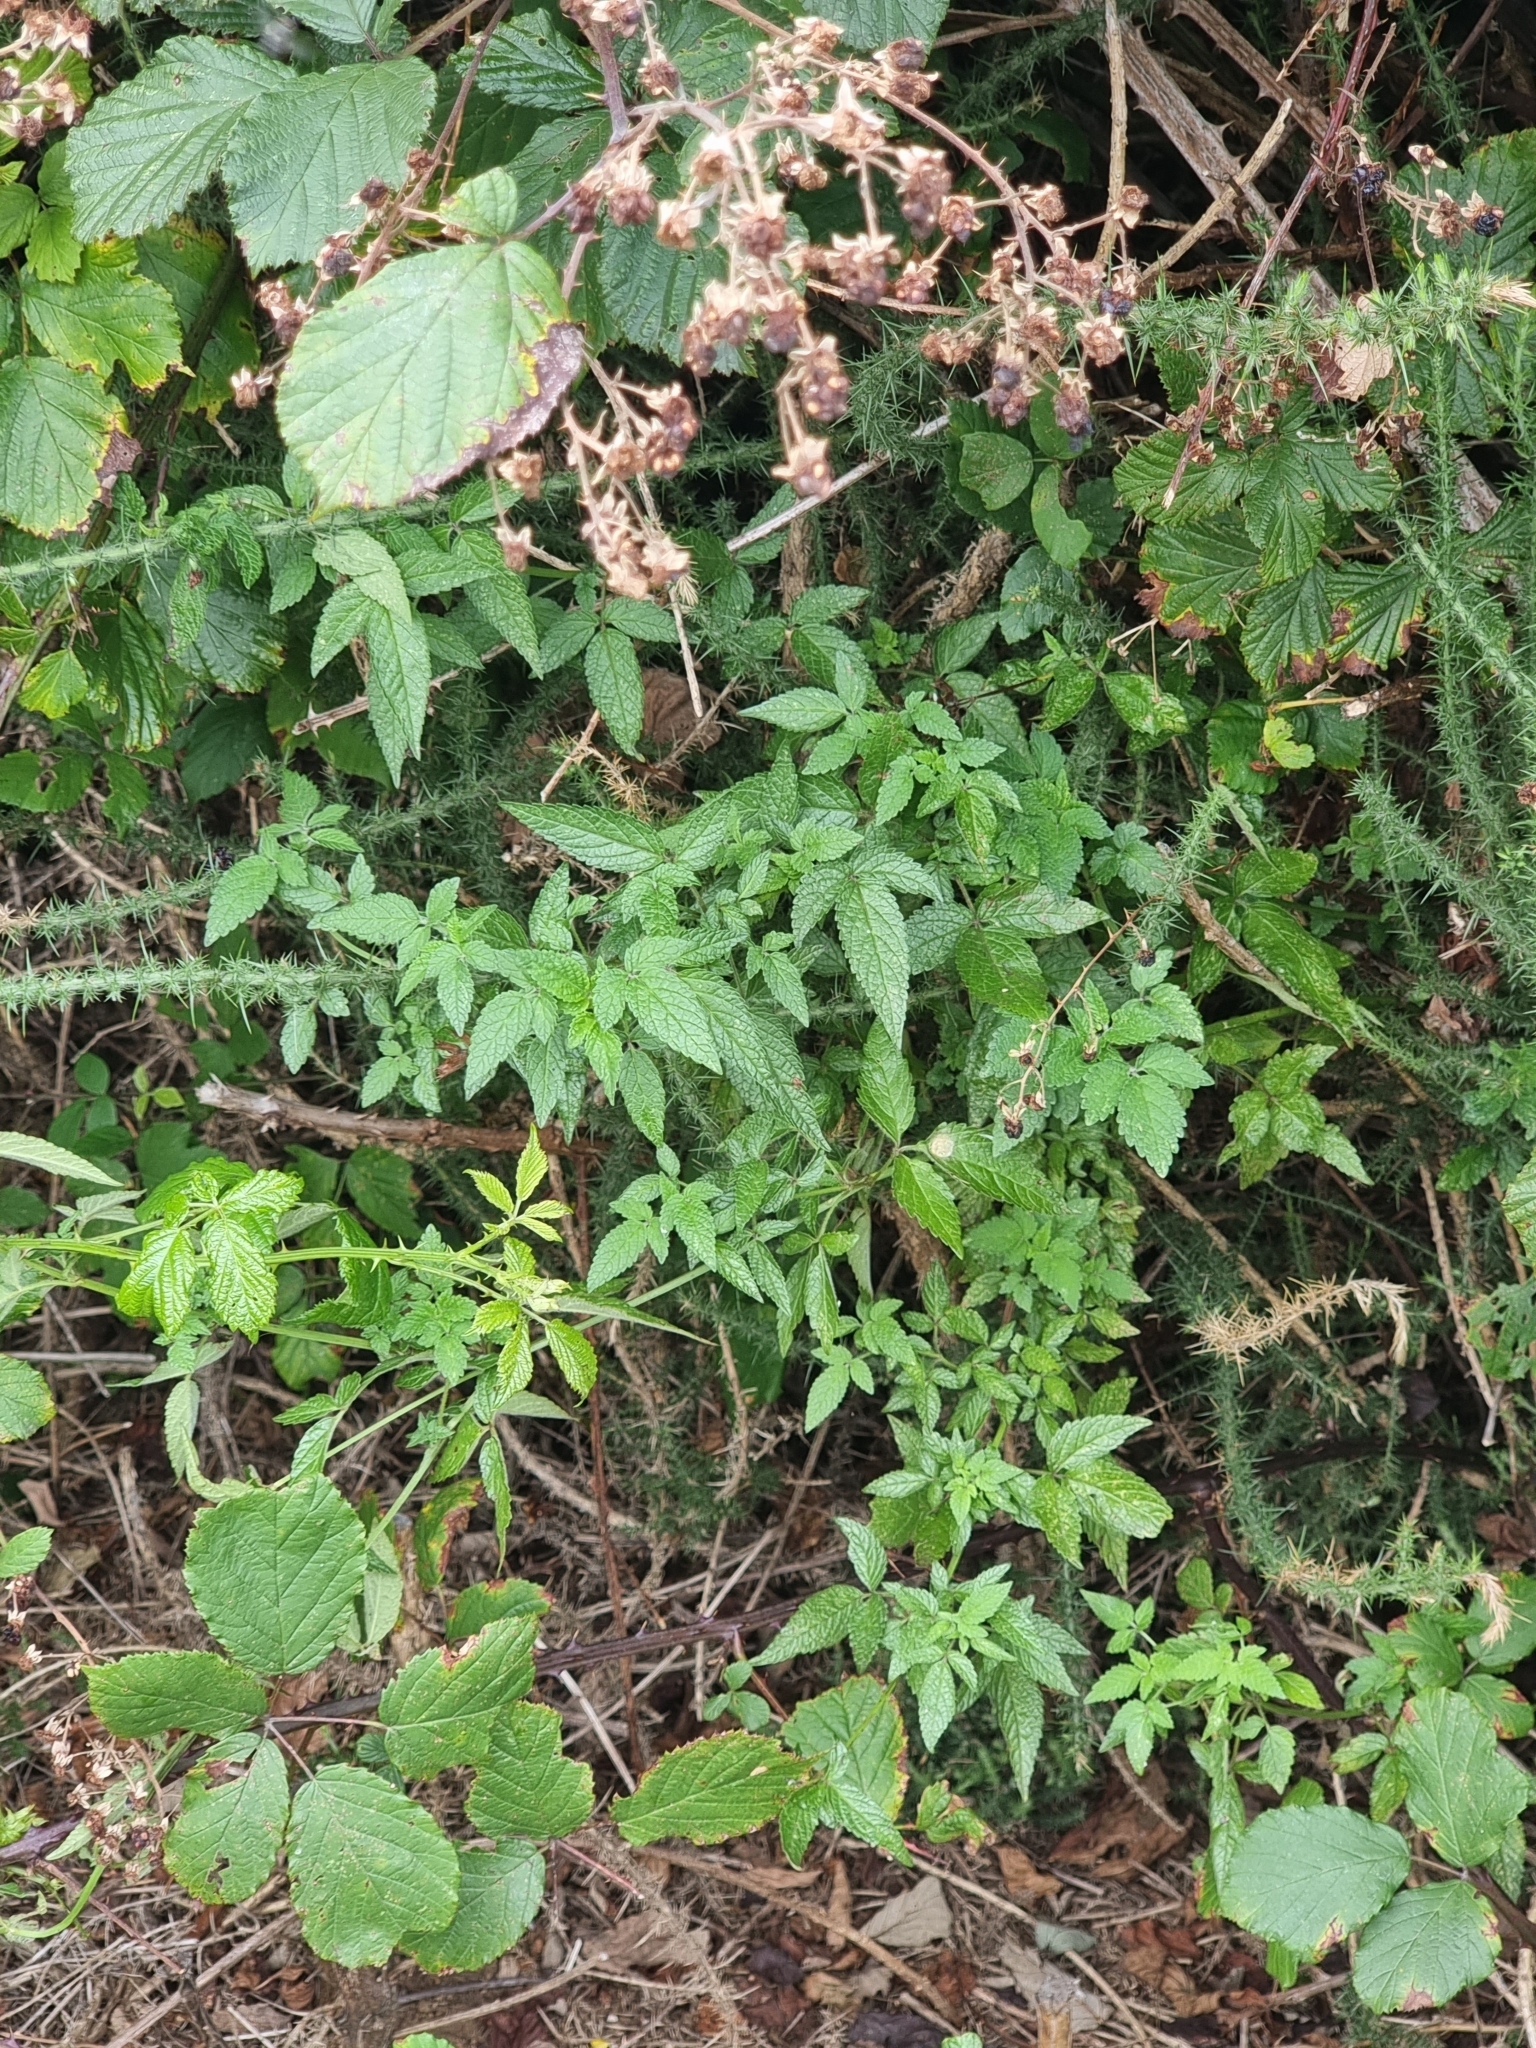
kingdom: Plantae
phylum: Tracheophyta
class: Magnoliopsida
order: Lamiales
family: Lamiaceae
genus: Cedronella
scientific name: Cedronella canariensis
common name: Canary islands balm
